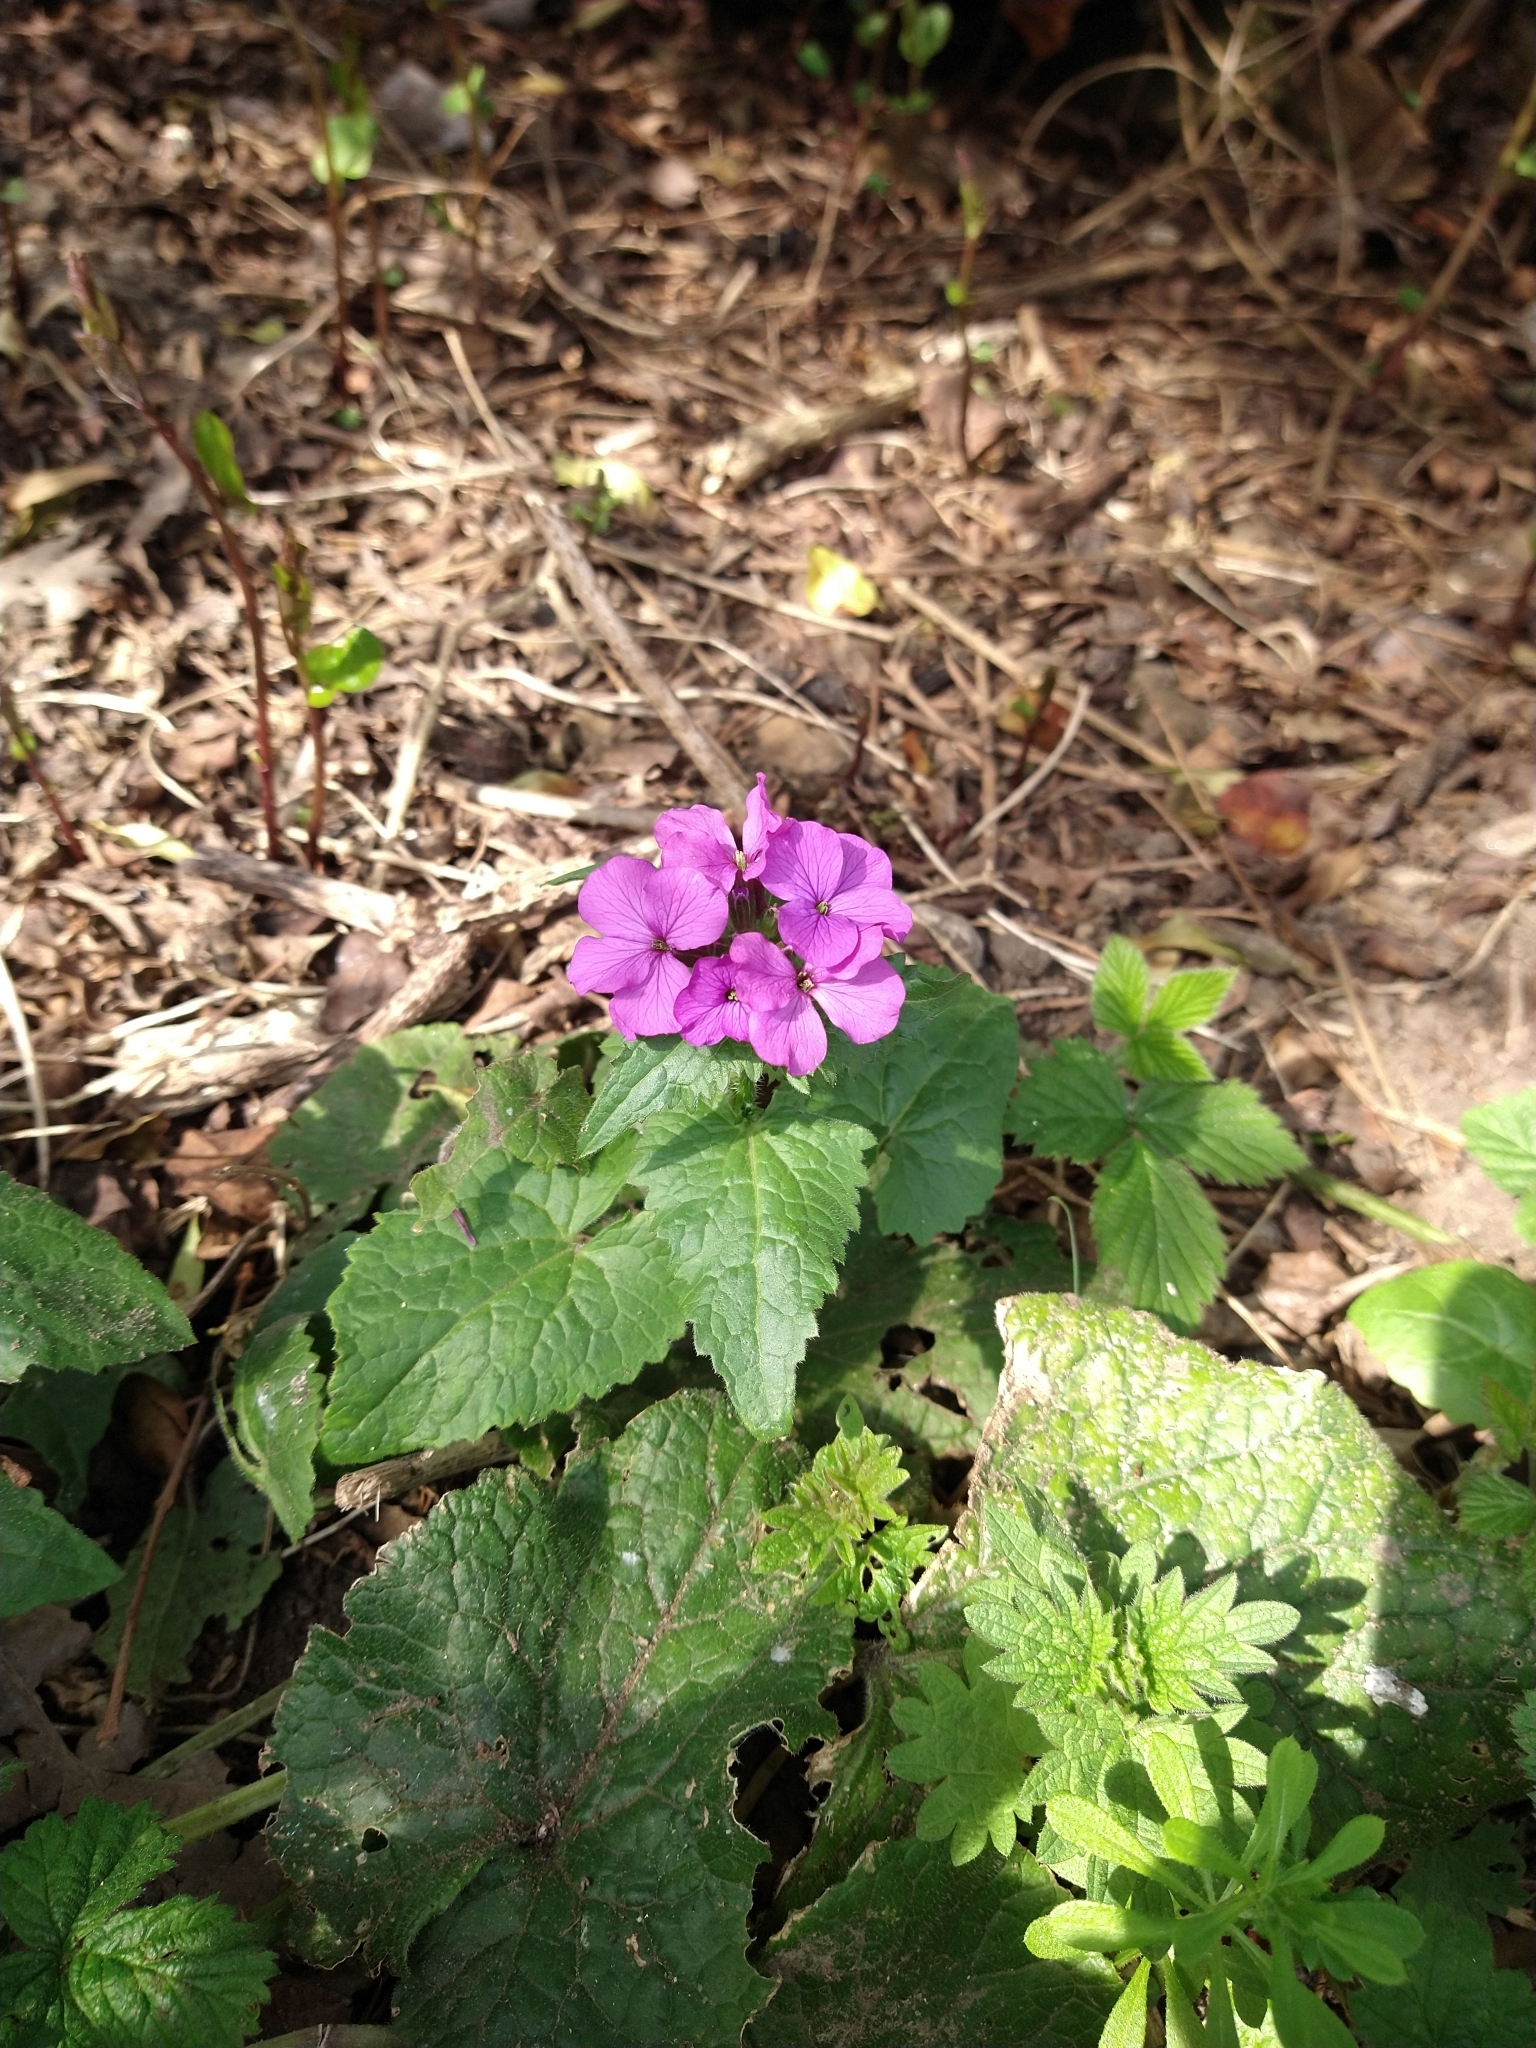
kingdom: Plantae
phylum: Tracheophyta
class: Magnoliopsida
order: Brassicales
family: Brassicaceae
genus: Lunaria
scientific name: Lunaria annua
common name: Honesty
